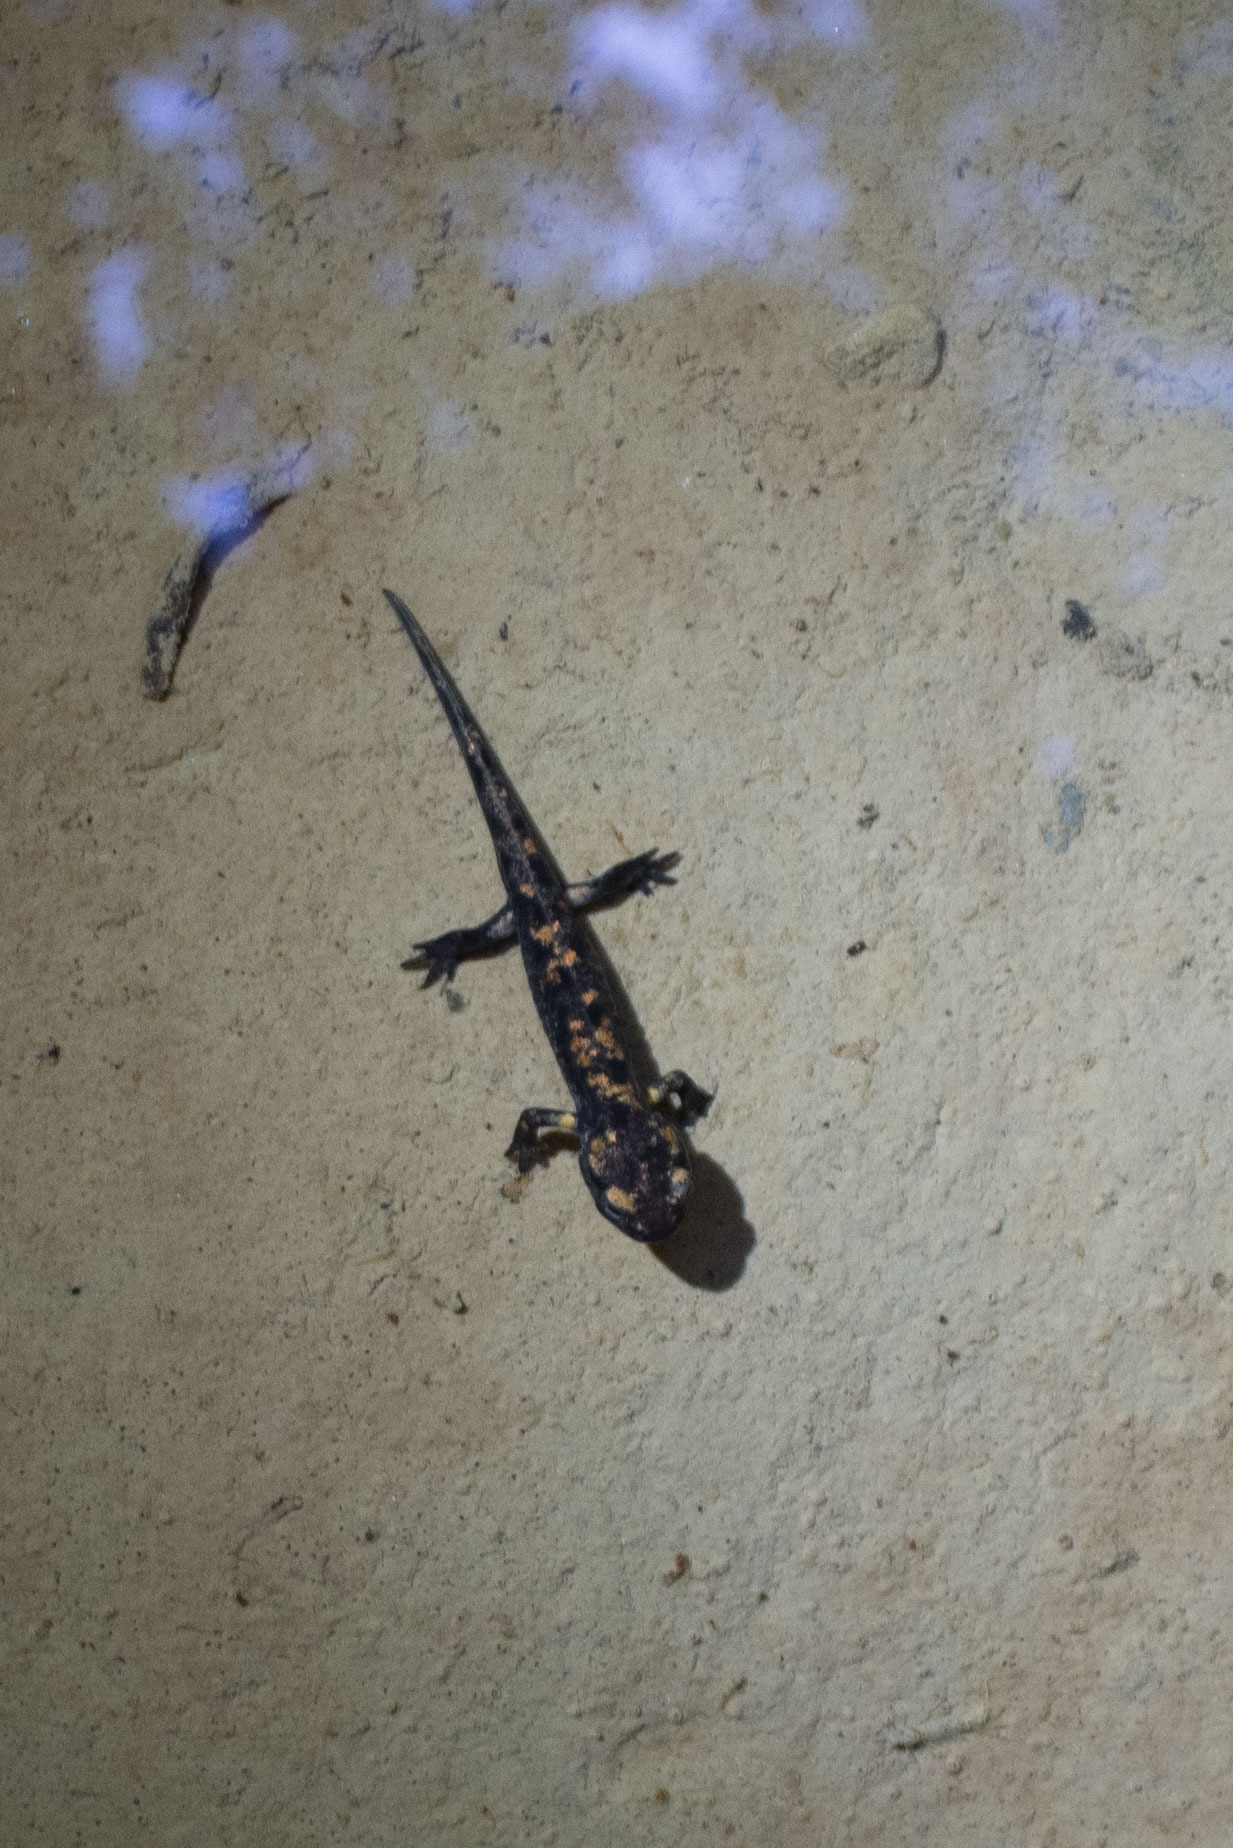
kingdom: Animalia
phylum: Chordata
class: Amphibia
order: Caudata
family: Salamandridae
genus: Salamandra
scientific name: Salamandra salamandra
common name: Fire salamander
